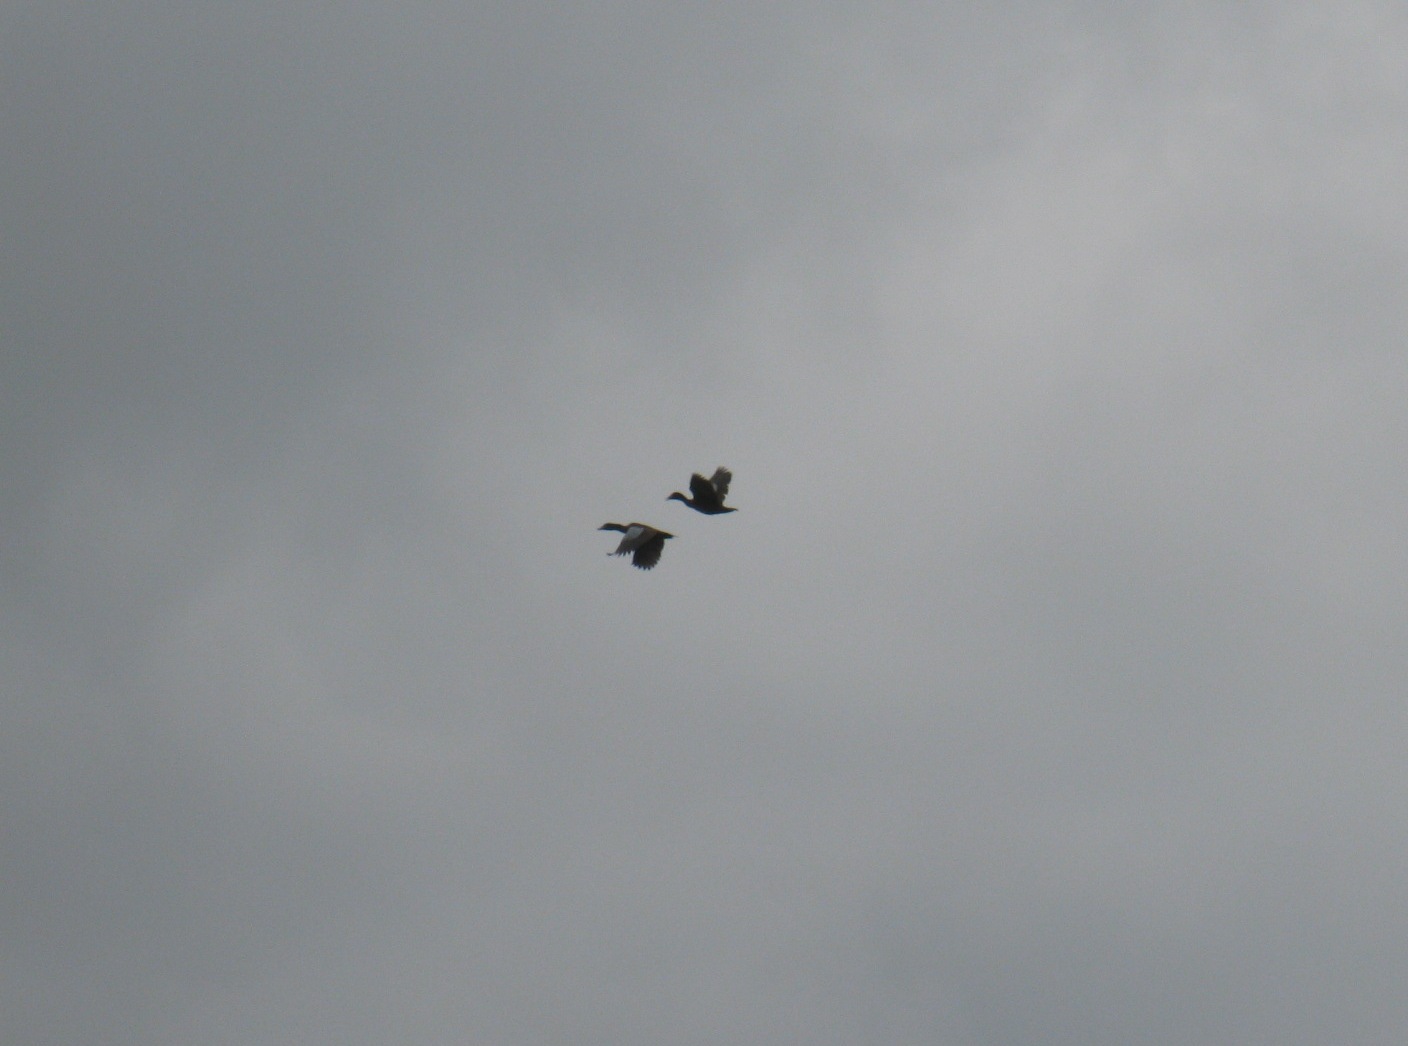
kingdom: Animalia
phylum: Chordata
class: Aves
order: Anseriformes
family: Anatidae
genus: Pteronetta
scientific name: Pteronetta hartlaubii
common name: Hartlaub's duck
